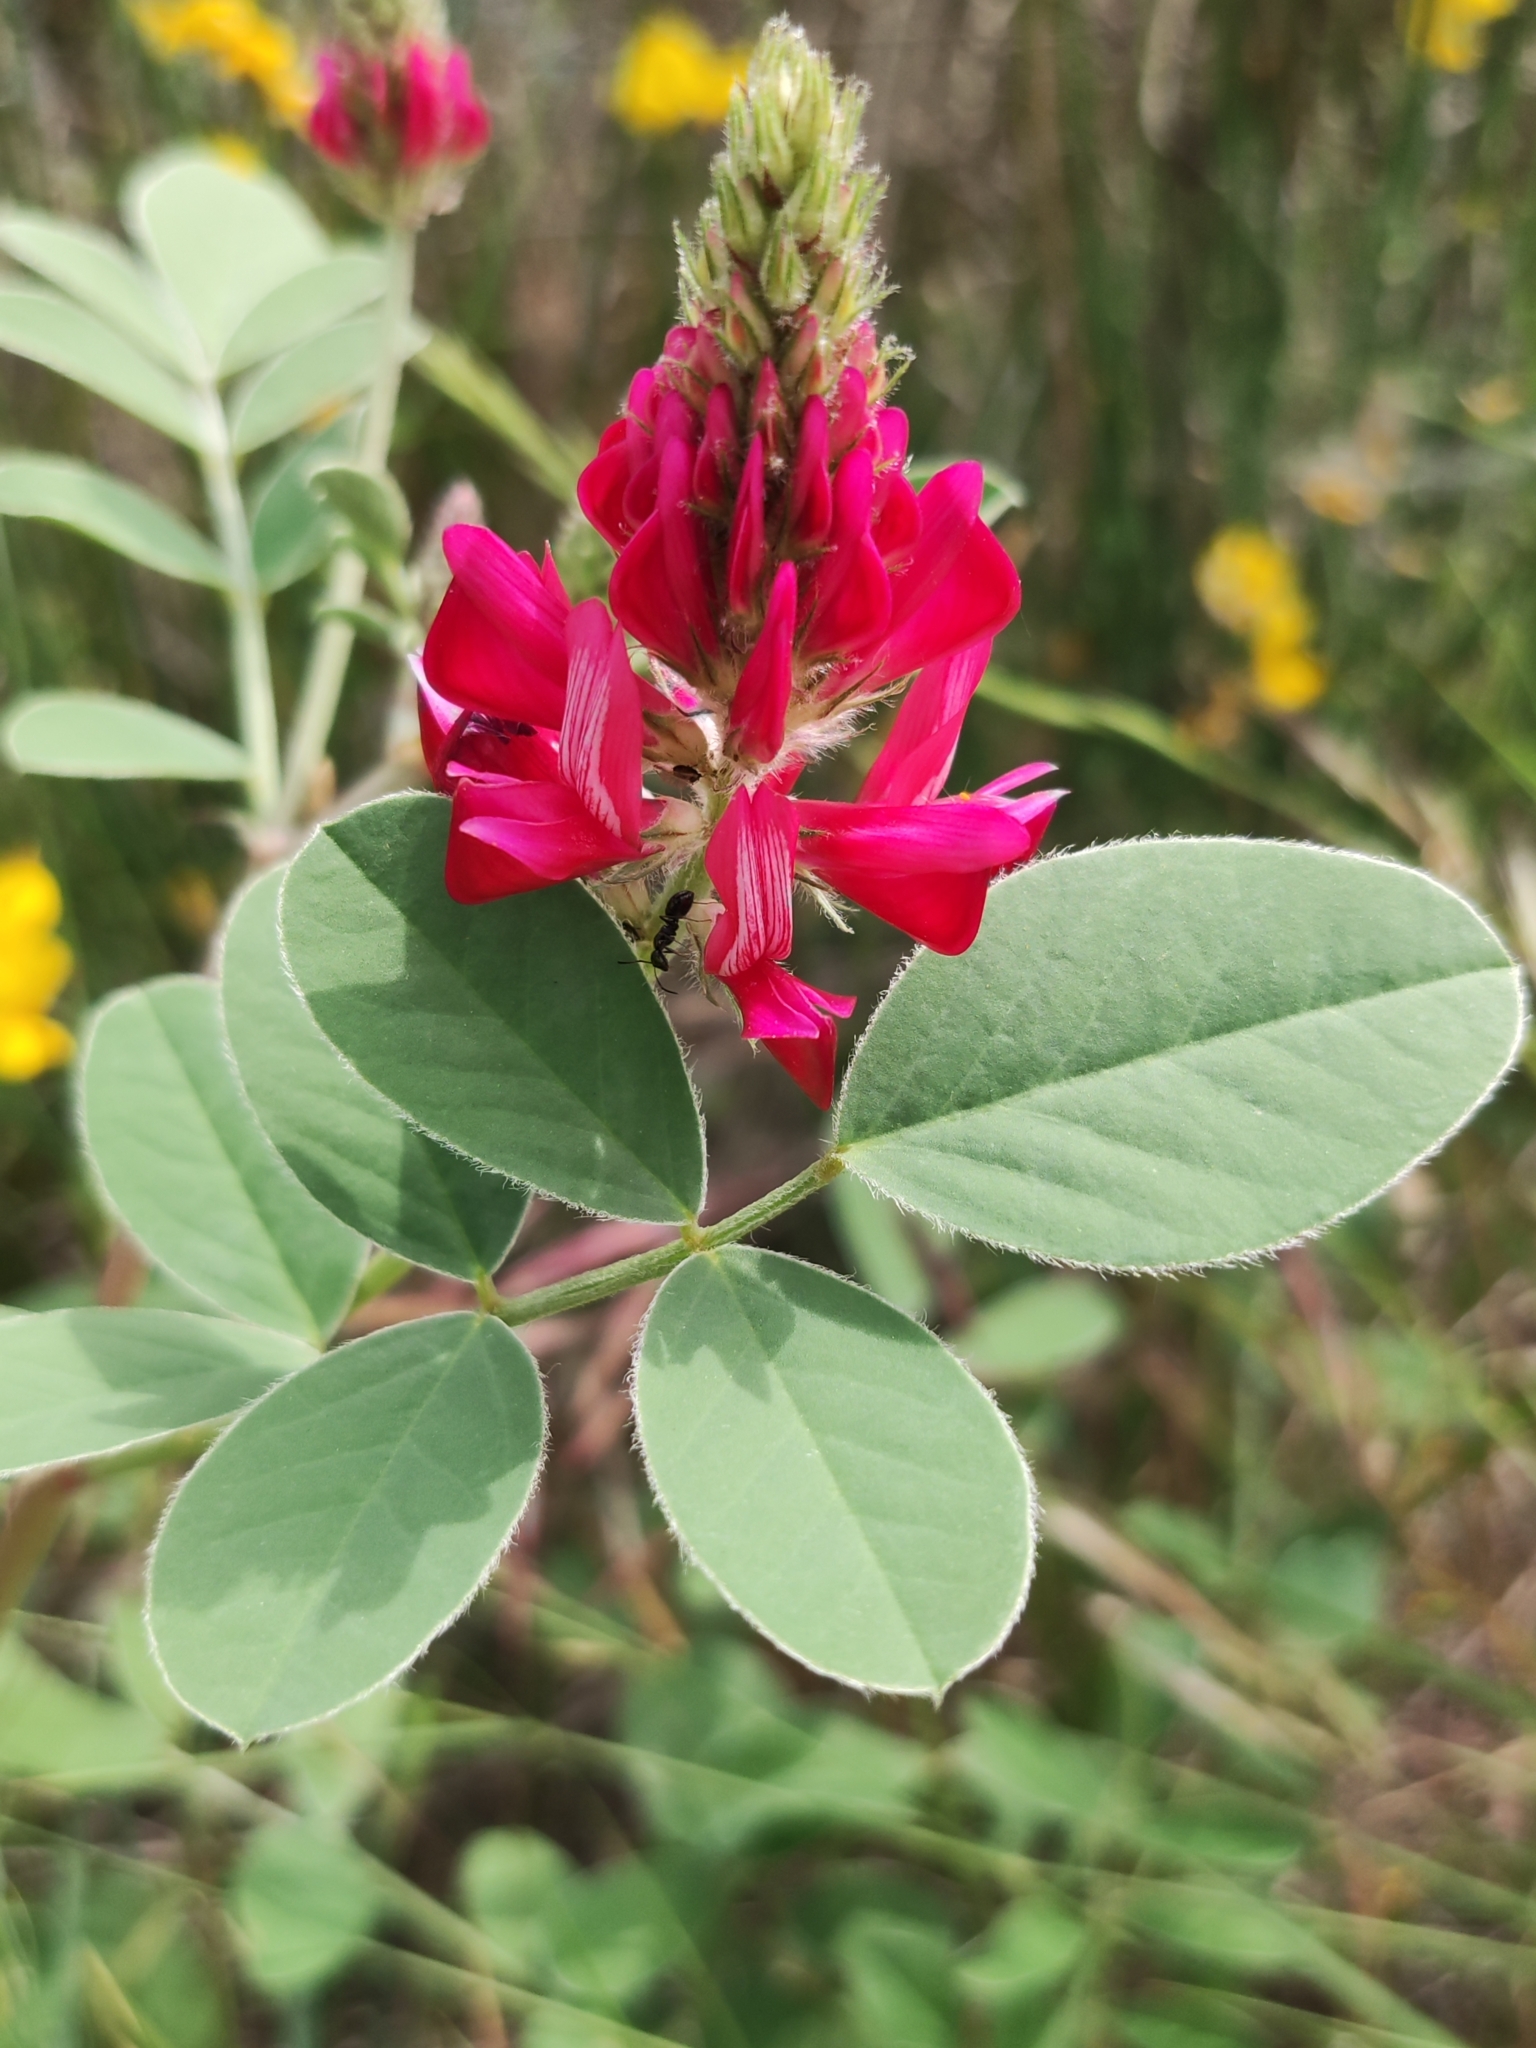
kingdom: Plantae
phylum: Tracheophyta
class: Magnoliopsida
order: Fabales
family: Fabaceae
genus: Sulla
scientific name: Sulla coronaria
